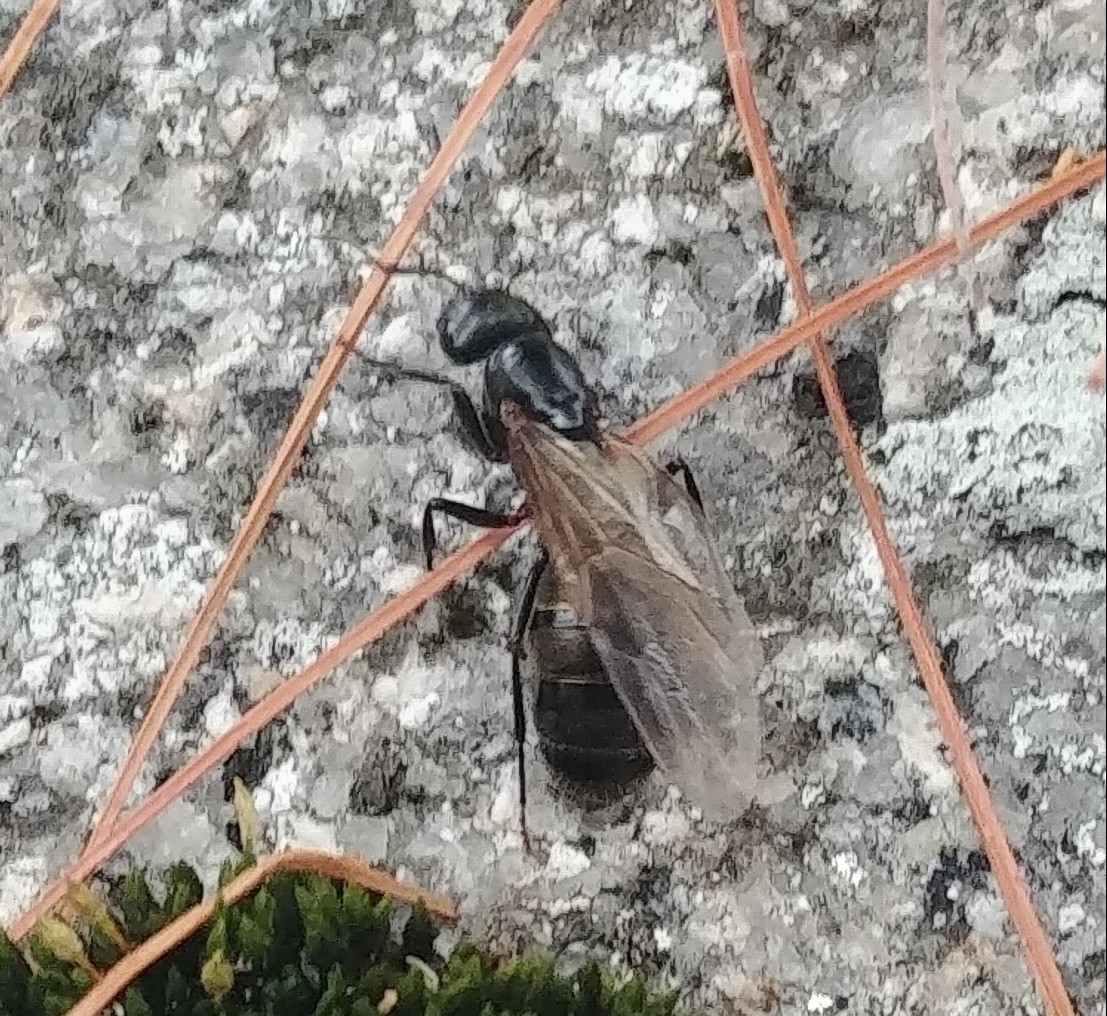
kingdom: Animalia
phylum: Arthropoda
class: Insecta
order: Hymenoptera
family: Formicidae
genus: Camponotus
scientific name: Camponotus pennsylvanicus
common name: Black carpenter ant
